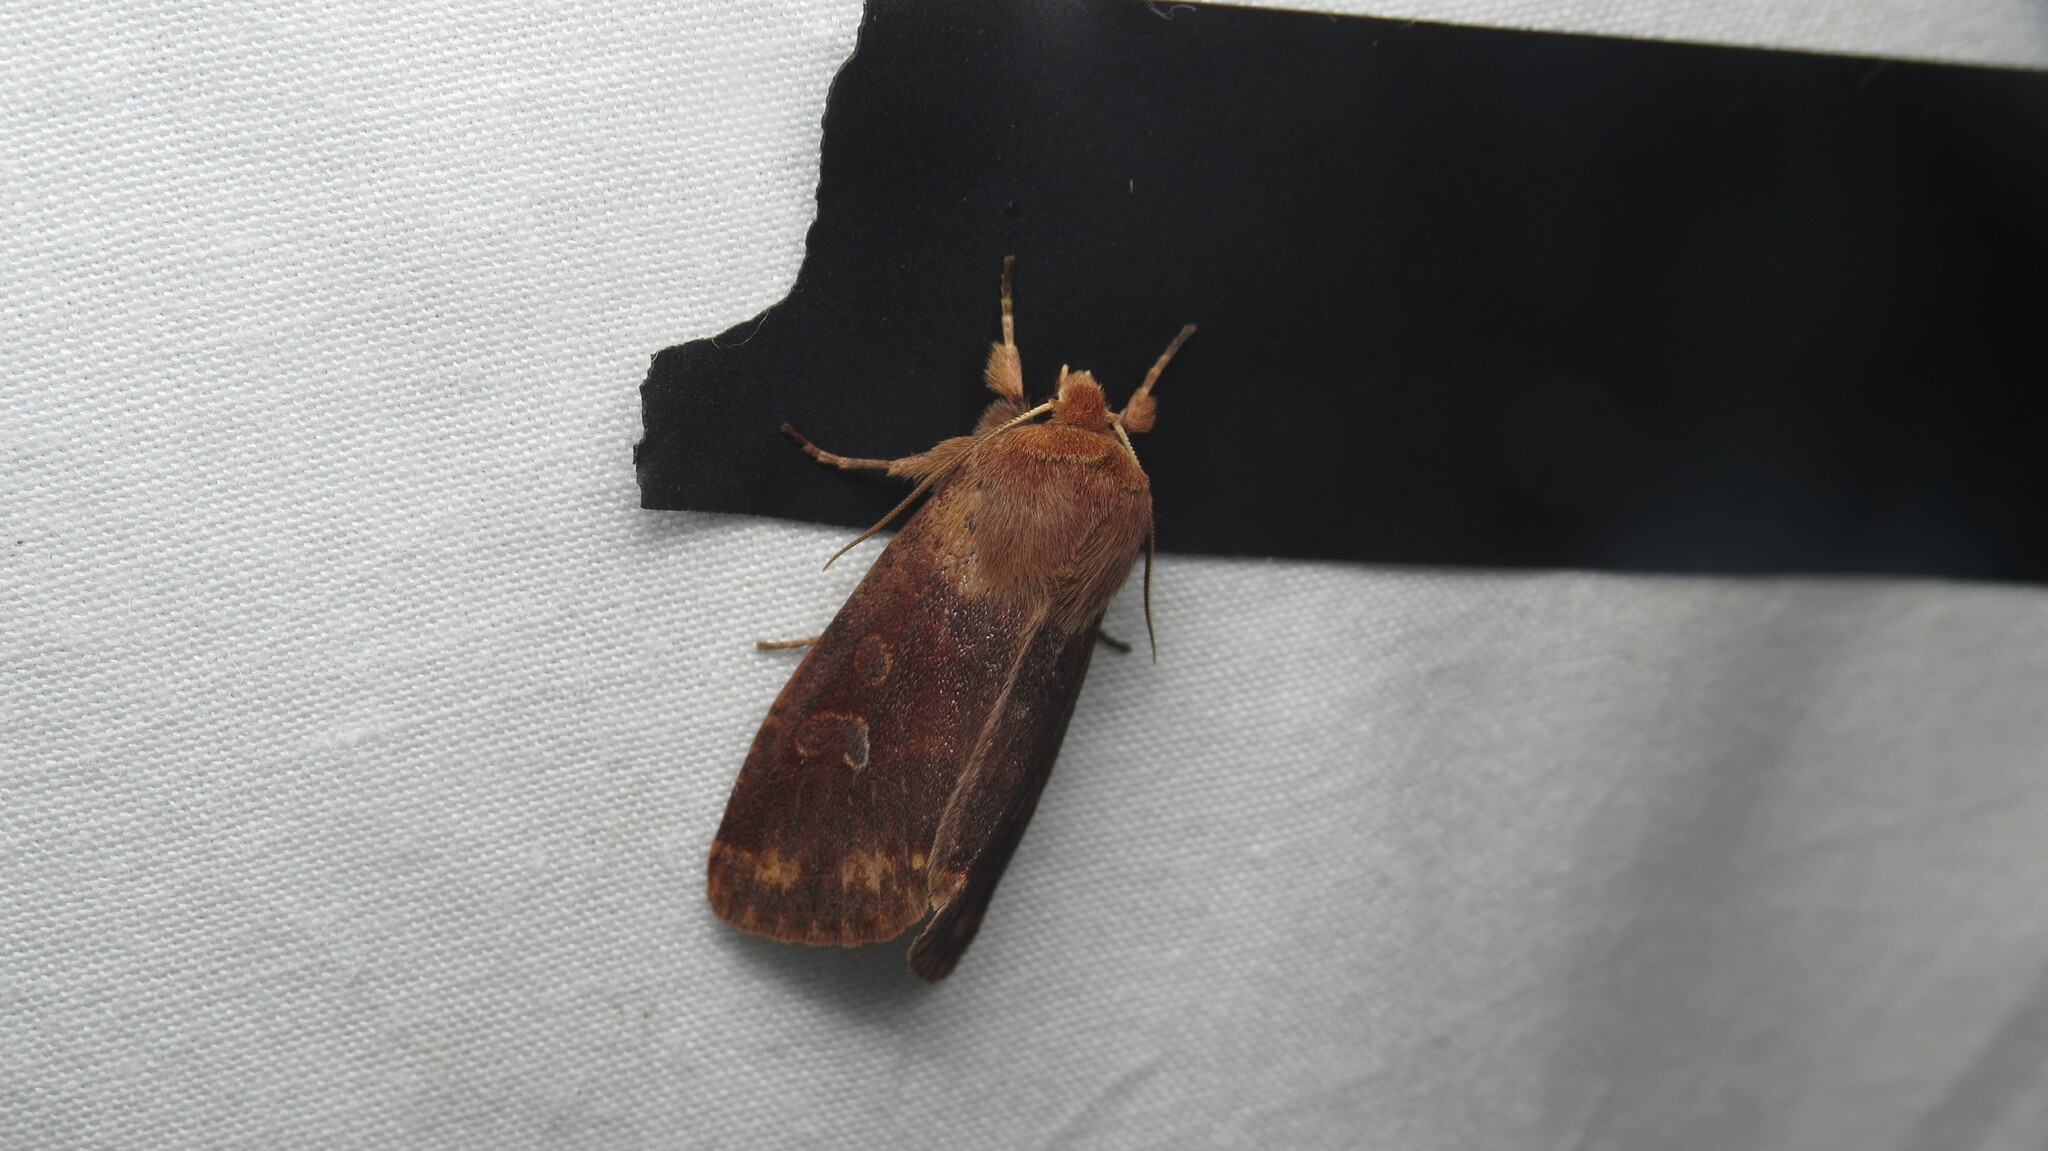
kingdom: Animalia
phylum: Arthropoda
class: Insecta
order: Lepidoptera
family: Noctuidae
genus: Orthosia
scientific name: Orthosia rubescens
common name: Ruby quaker
